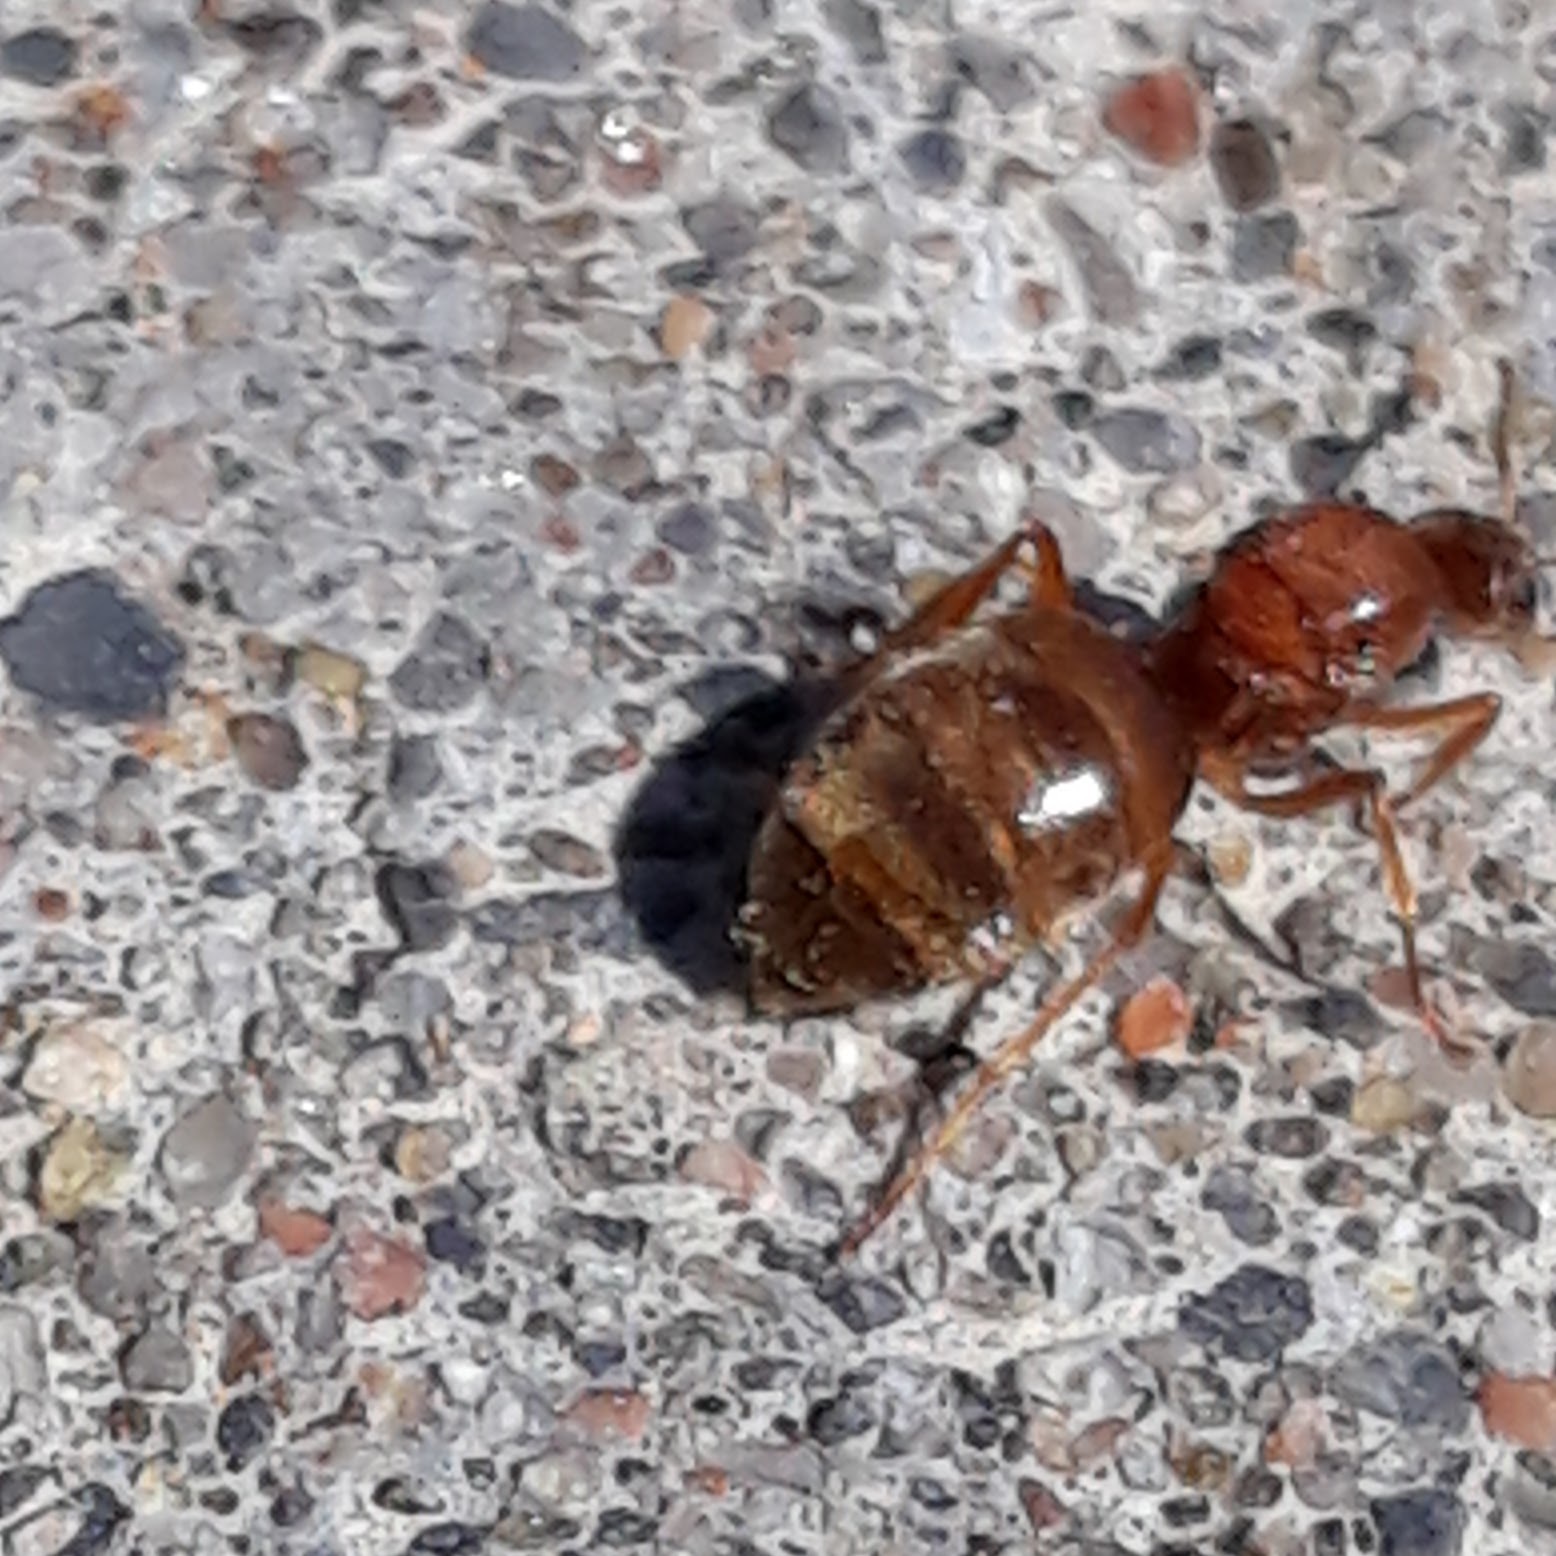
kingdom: Animalia
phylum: Arthropoda
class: Insecta
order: Hymenoptera
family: Formicidae
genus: Prenolepis
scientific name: Prenolepis imparis
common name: Small honey ant
